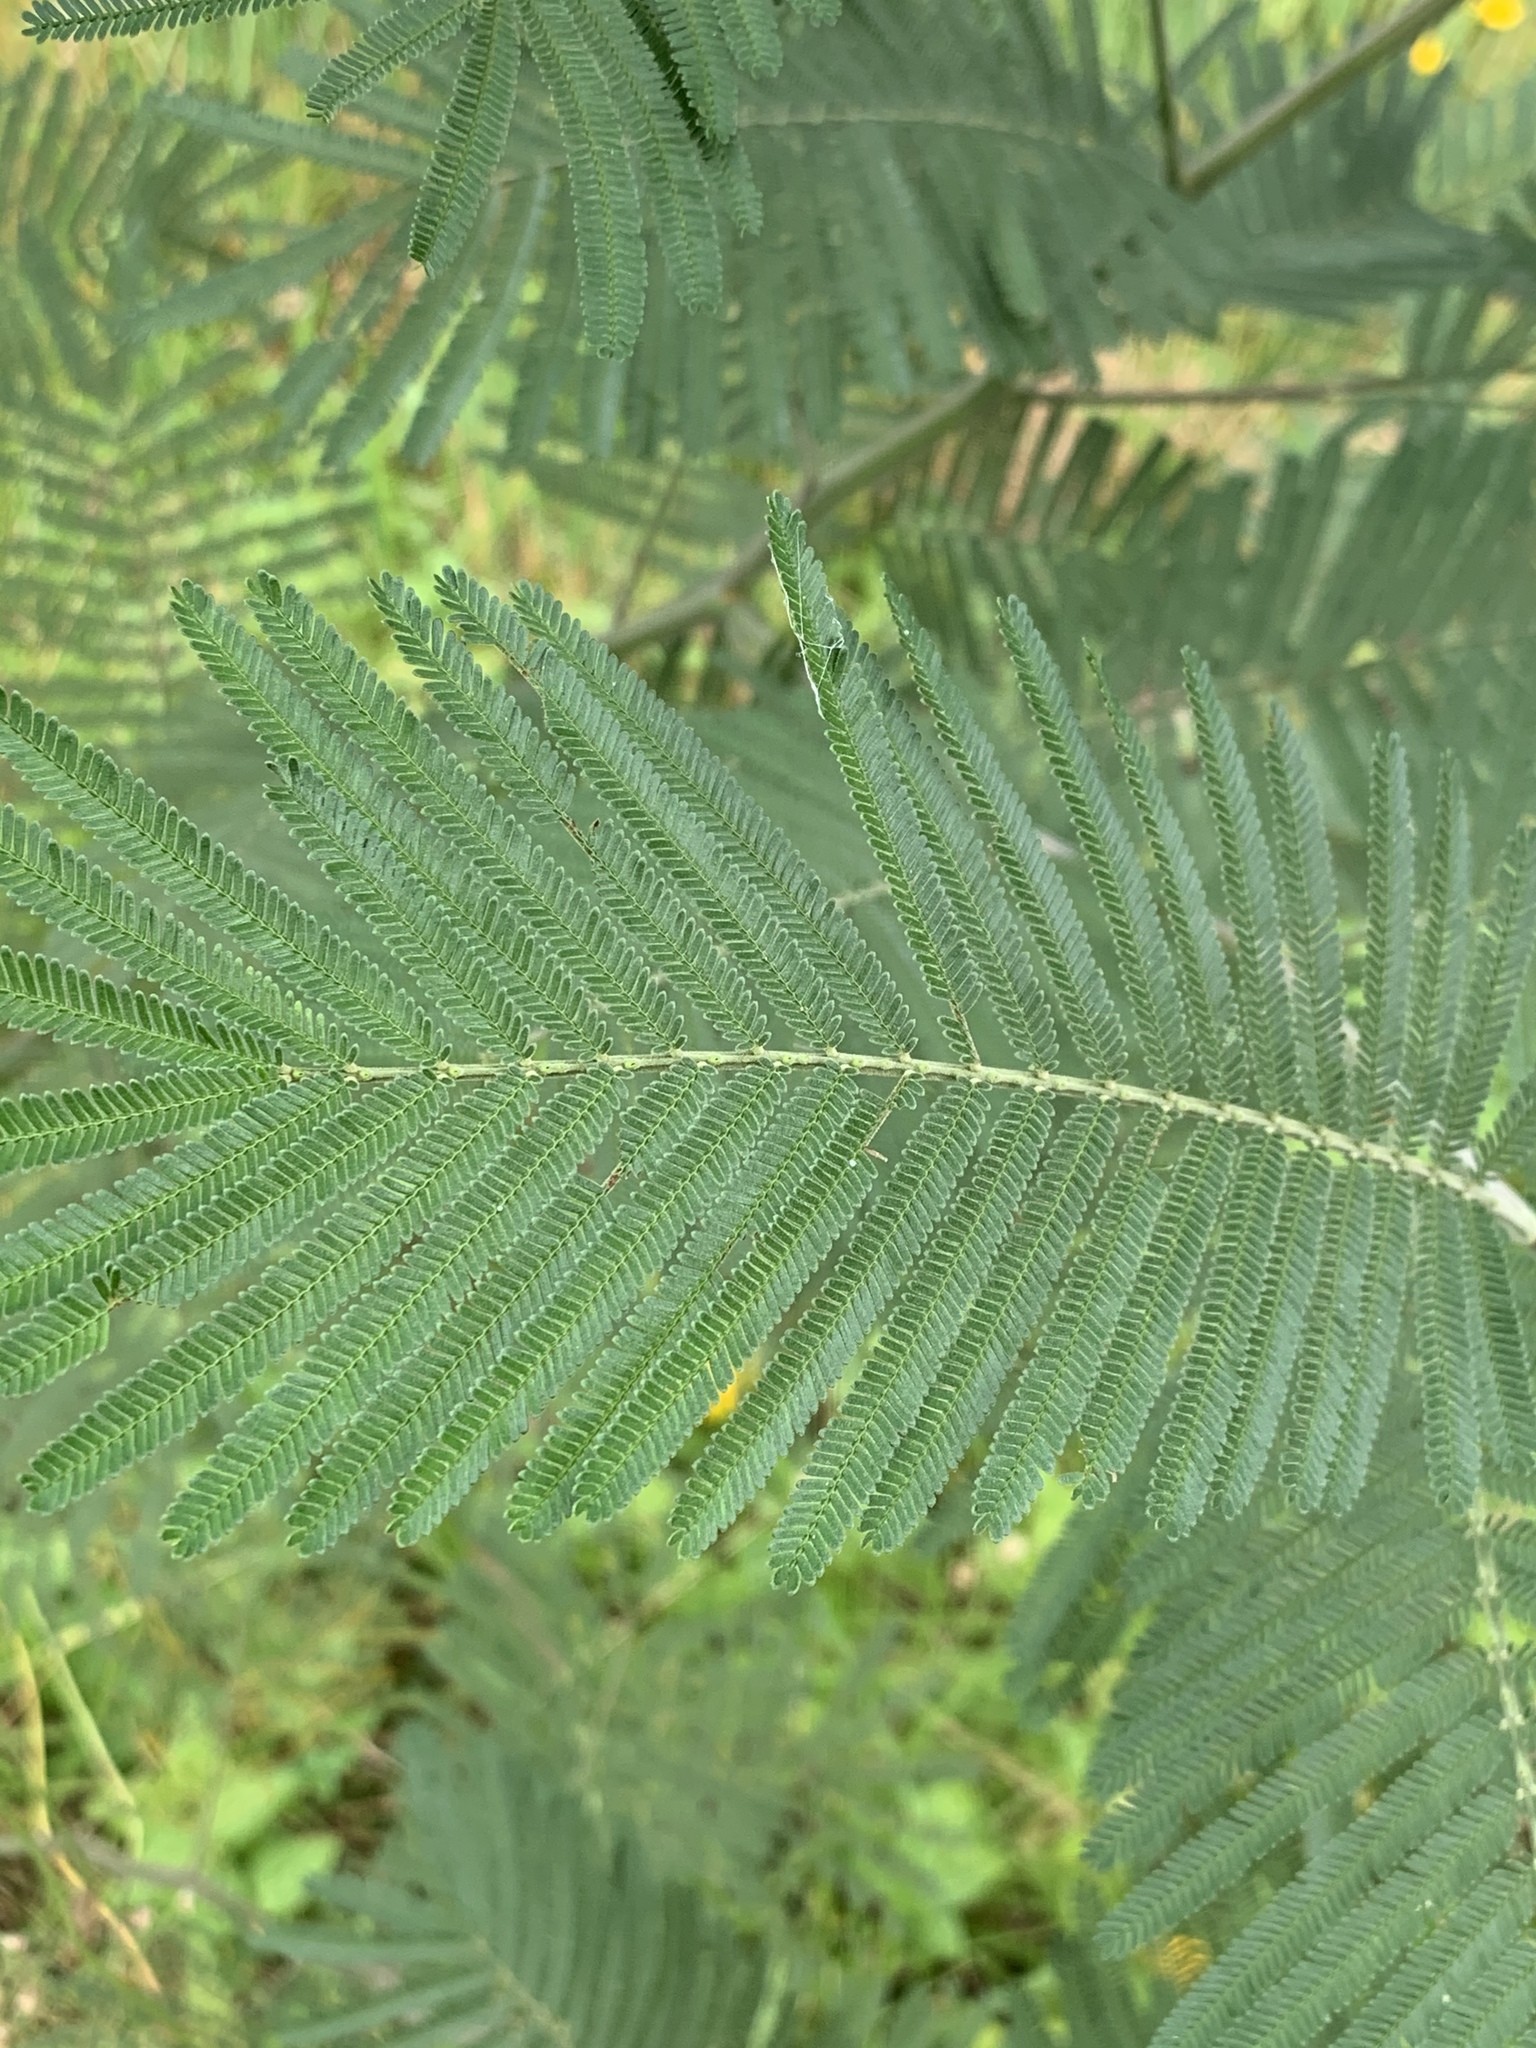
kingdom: Plantae
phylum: Tracheophyta
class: Magnoliopsida
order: Fabales
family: Fabaceae
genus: Acacia
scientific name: Acacia mearnsii
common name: Black wattle
